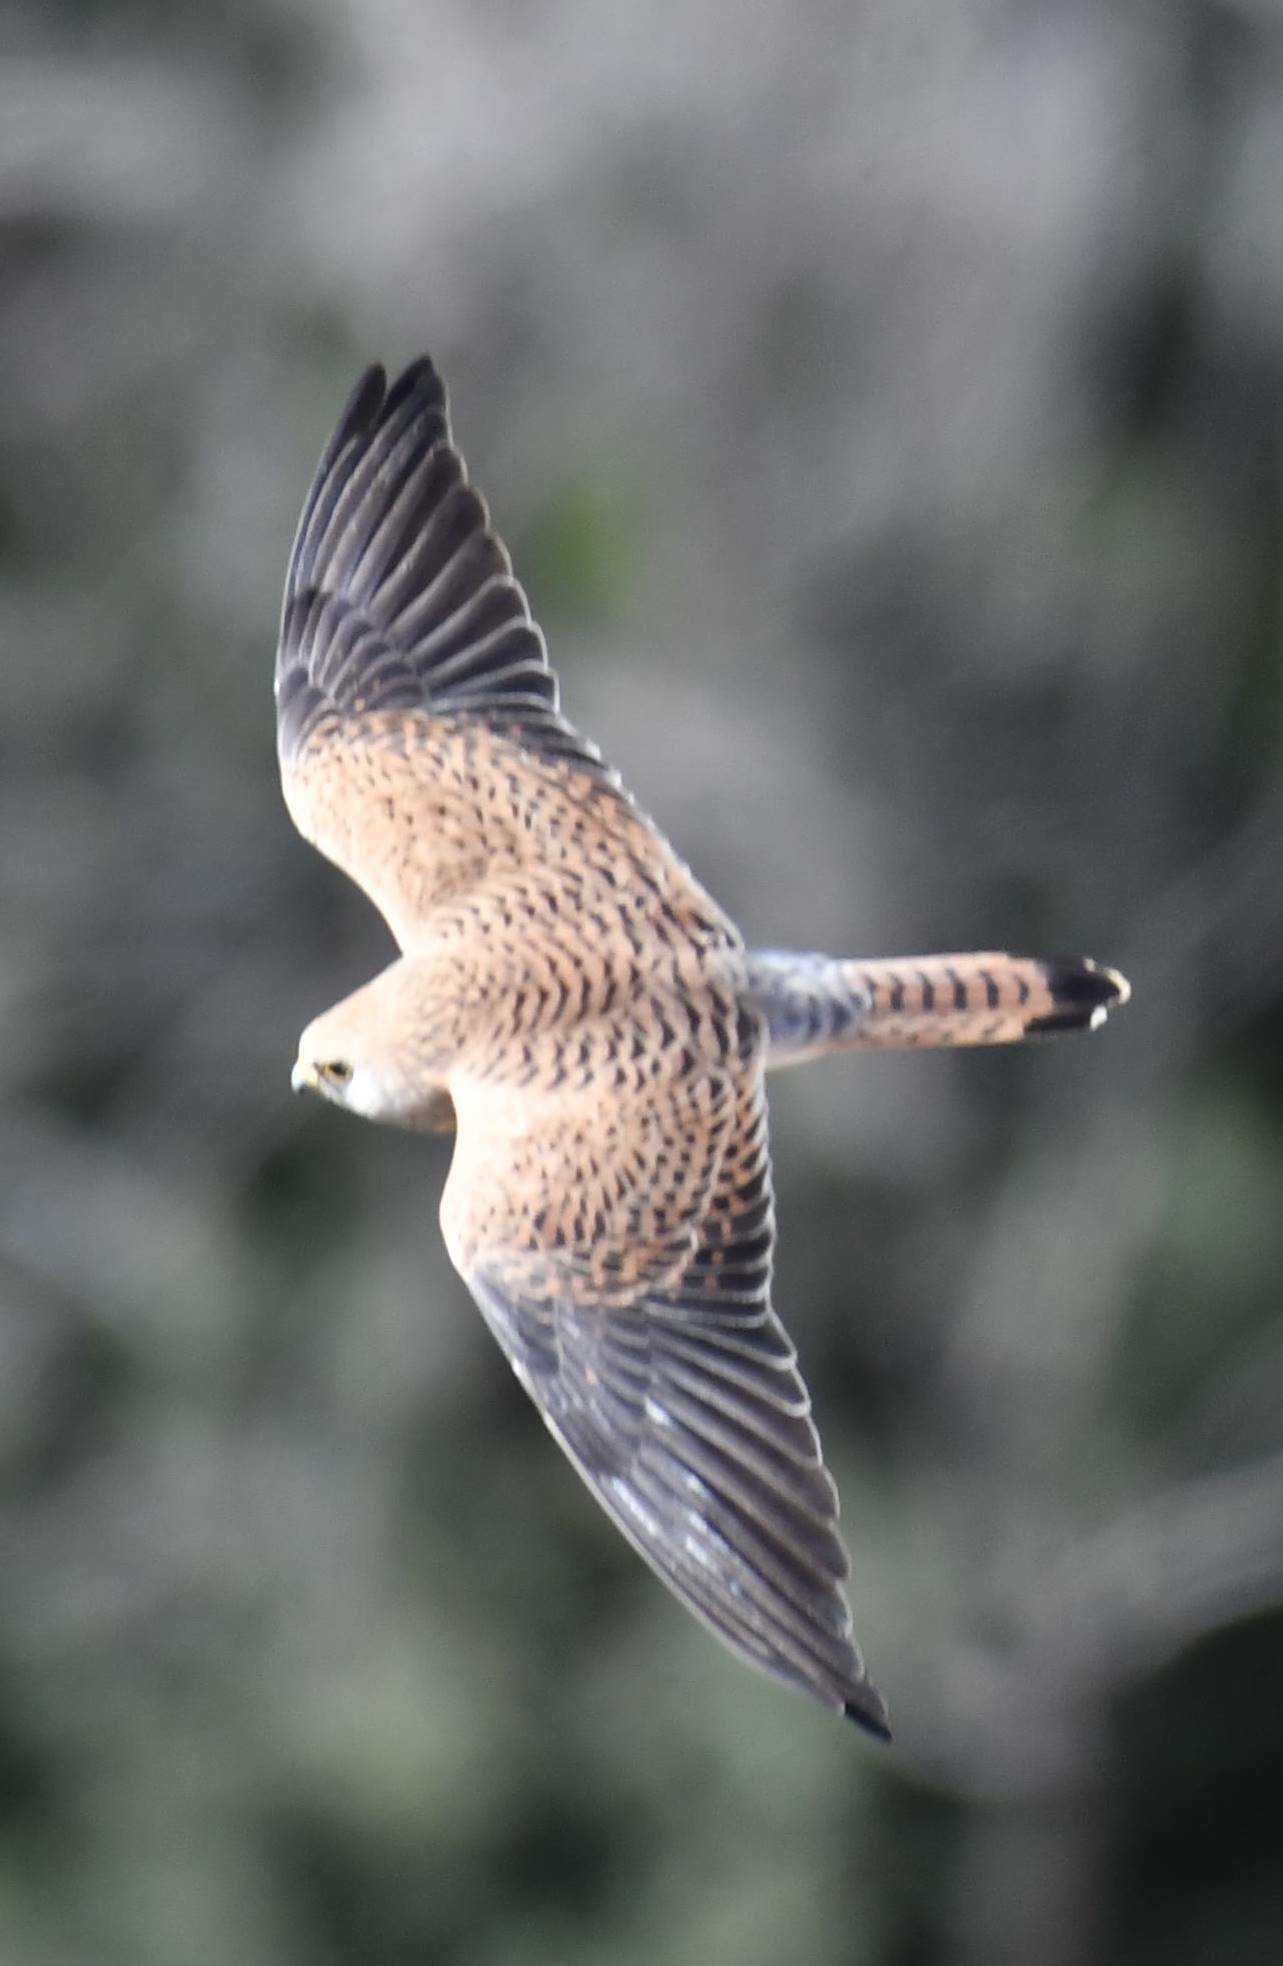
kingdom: Animalia
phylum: Chordata
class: Aves
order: Falconiformes
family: Falconidae
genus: Falco
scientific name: Falco tinnunculus
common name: Common kestrel
